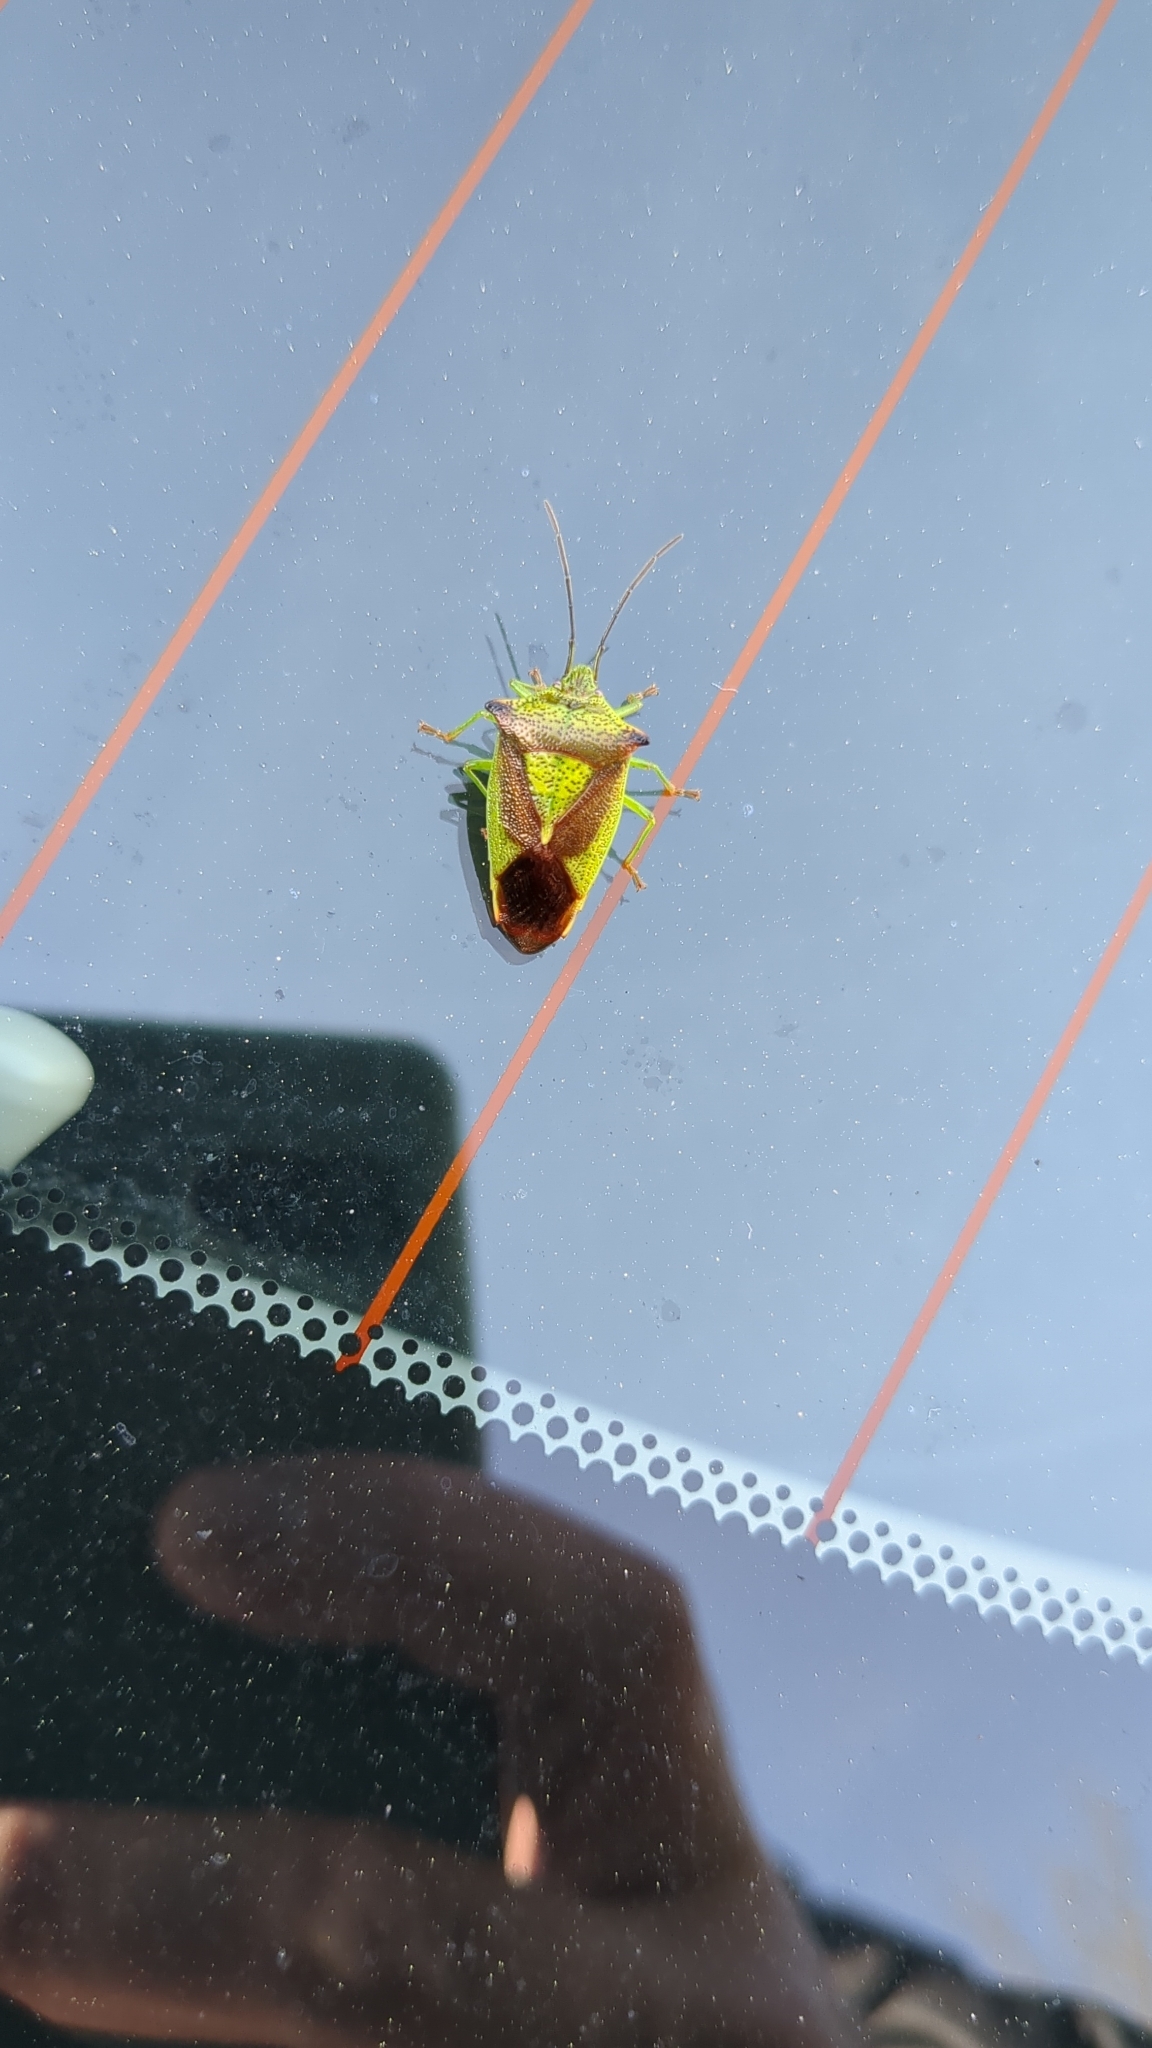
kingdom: Animalia
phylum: Arthropoda
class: Insecta
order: Hemiptera
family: Acanthosomatidae
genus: Acanthosoma
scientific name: Acanthosoma haemorrhoidale
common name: Hawthorn shieldbug
